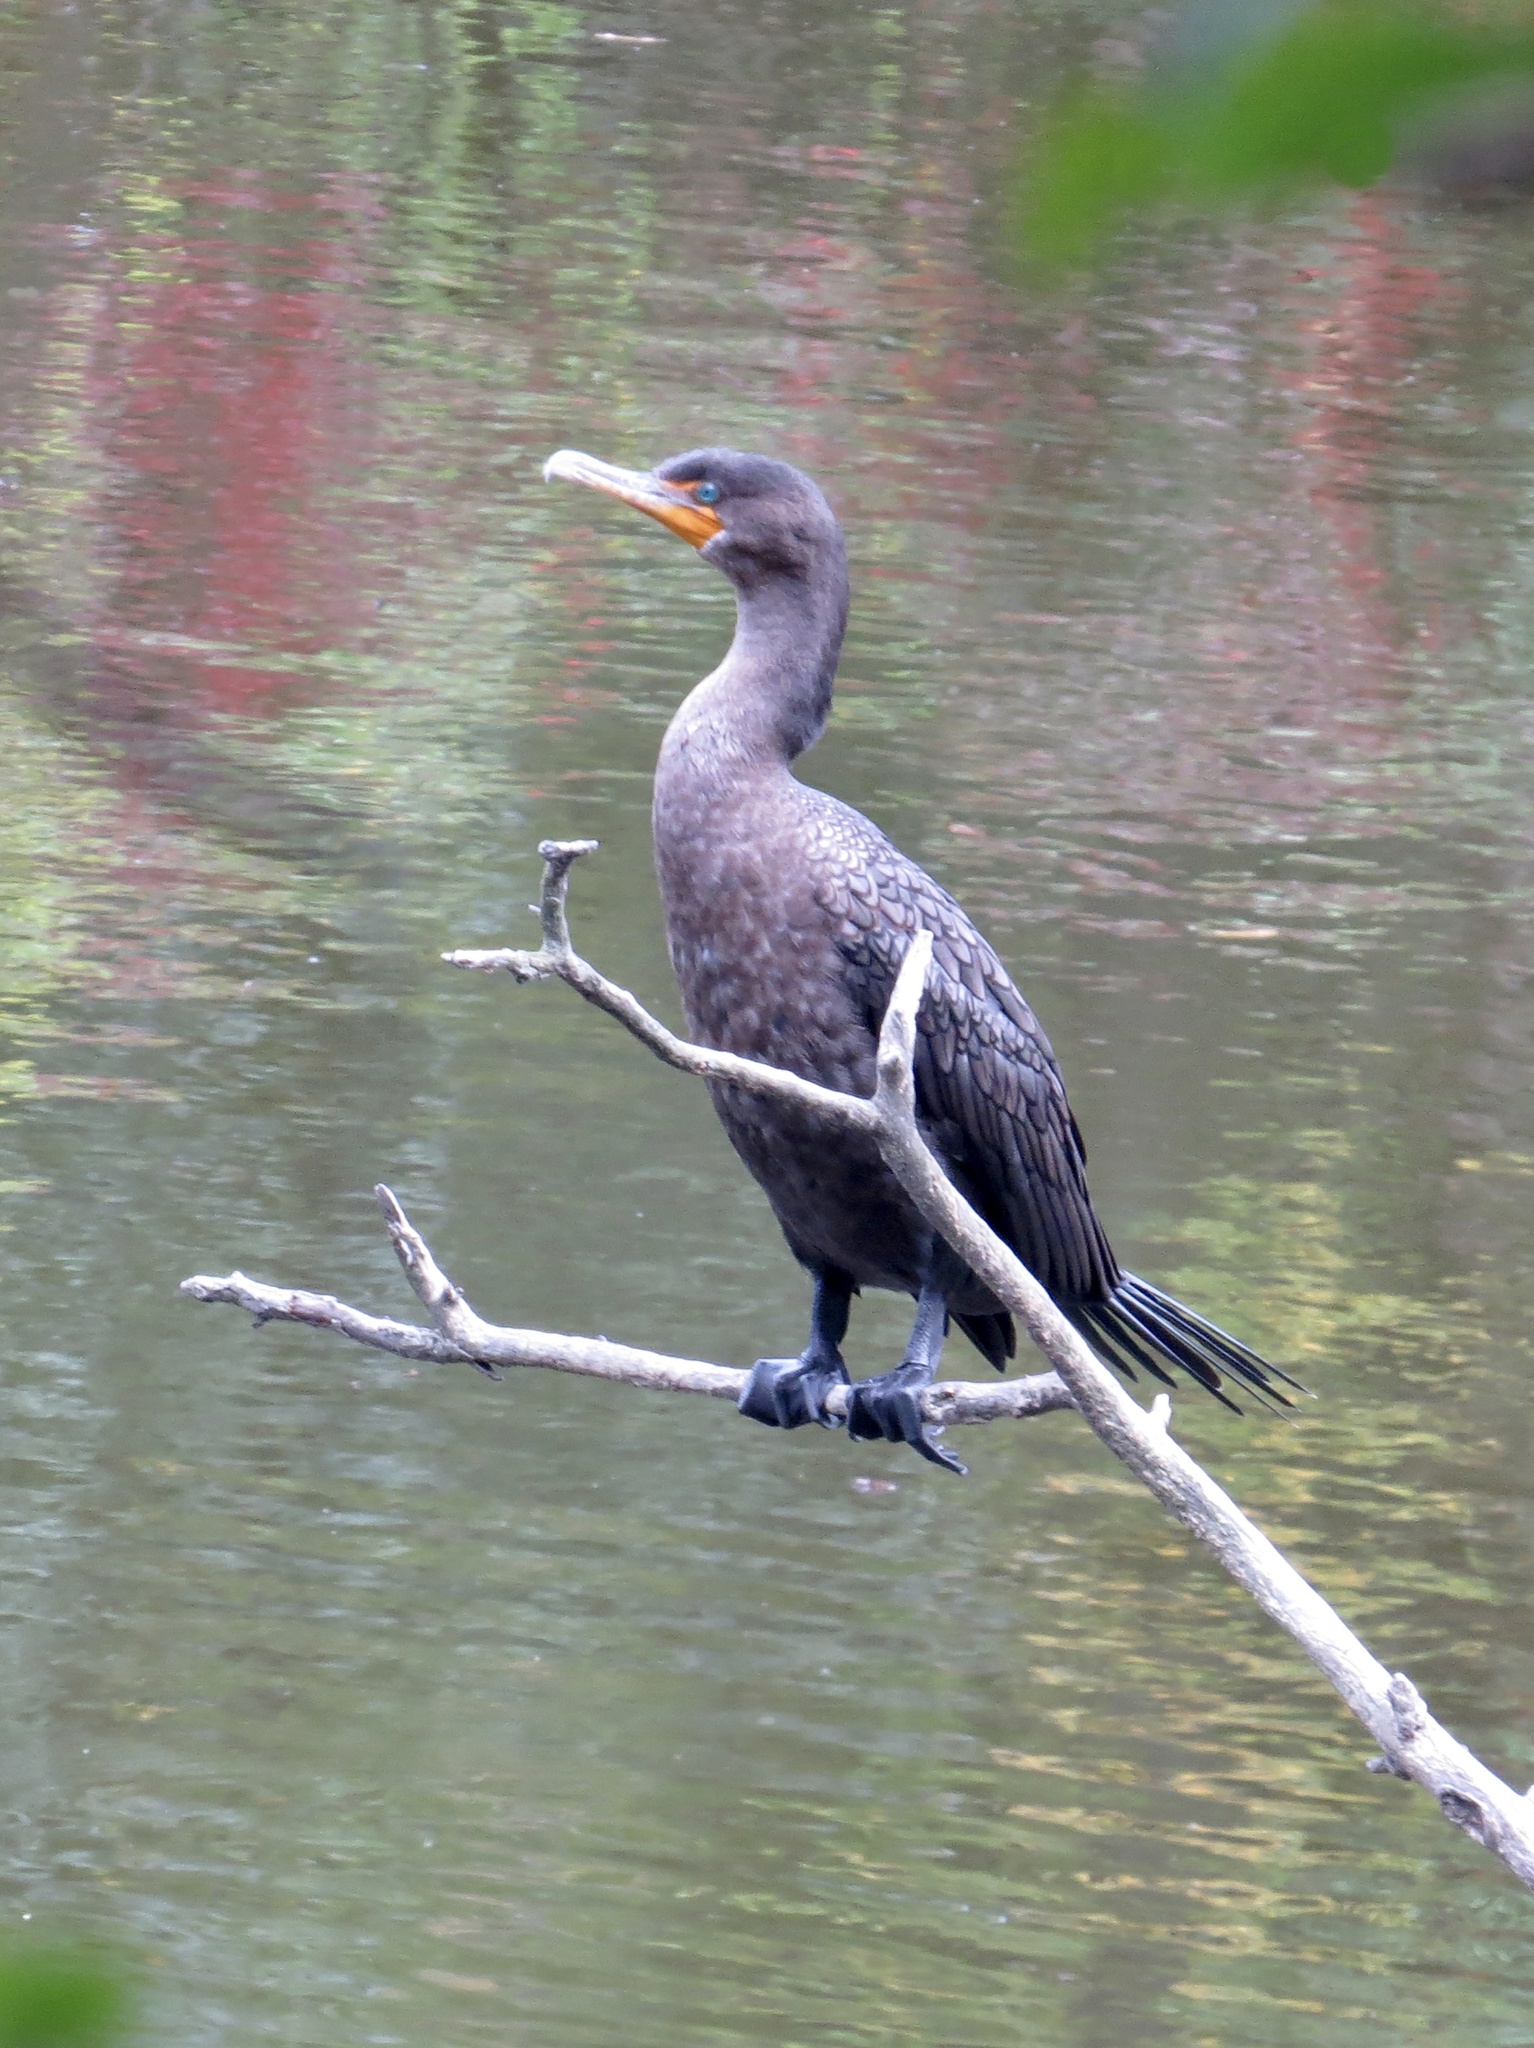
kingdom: Animalia
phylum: Chordata
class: Aves
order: Suliformes
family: Phalacrocoracidae
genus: Phalacrocorax
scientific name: Phalacrocorax auritus
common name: Double-crested cormorant
